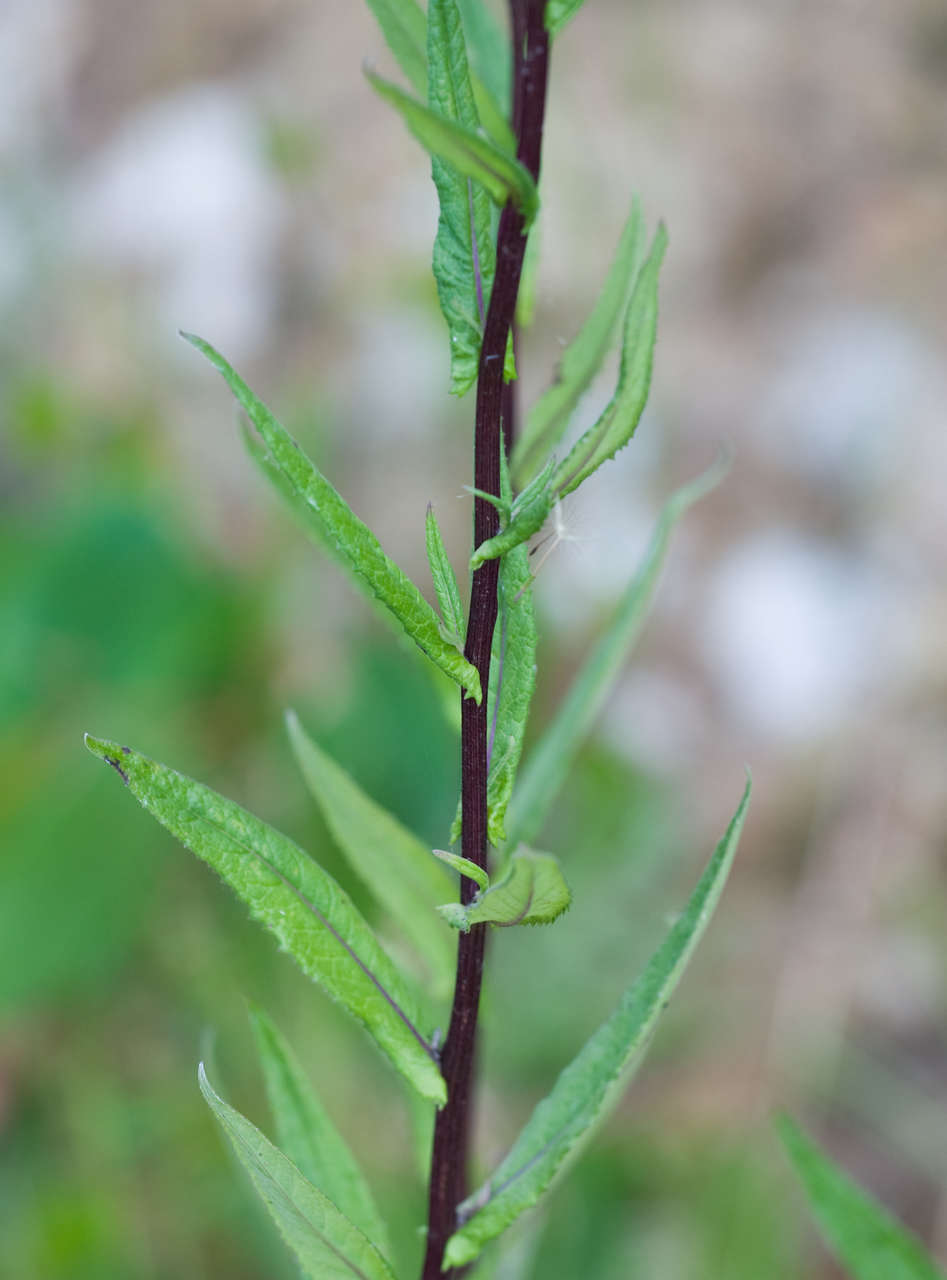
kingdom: Plantae
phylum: Tracheophyta
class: Magnoliopsida
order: Asterales
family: Asteraceae
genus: Senecio
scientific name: Senecio minimus
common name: Toothed fireweed
